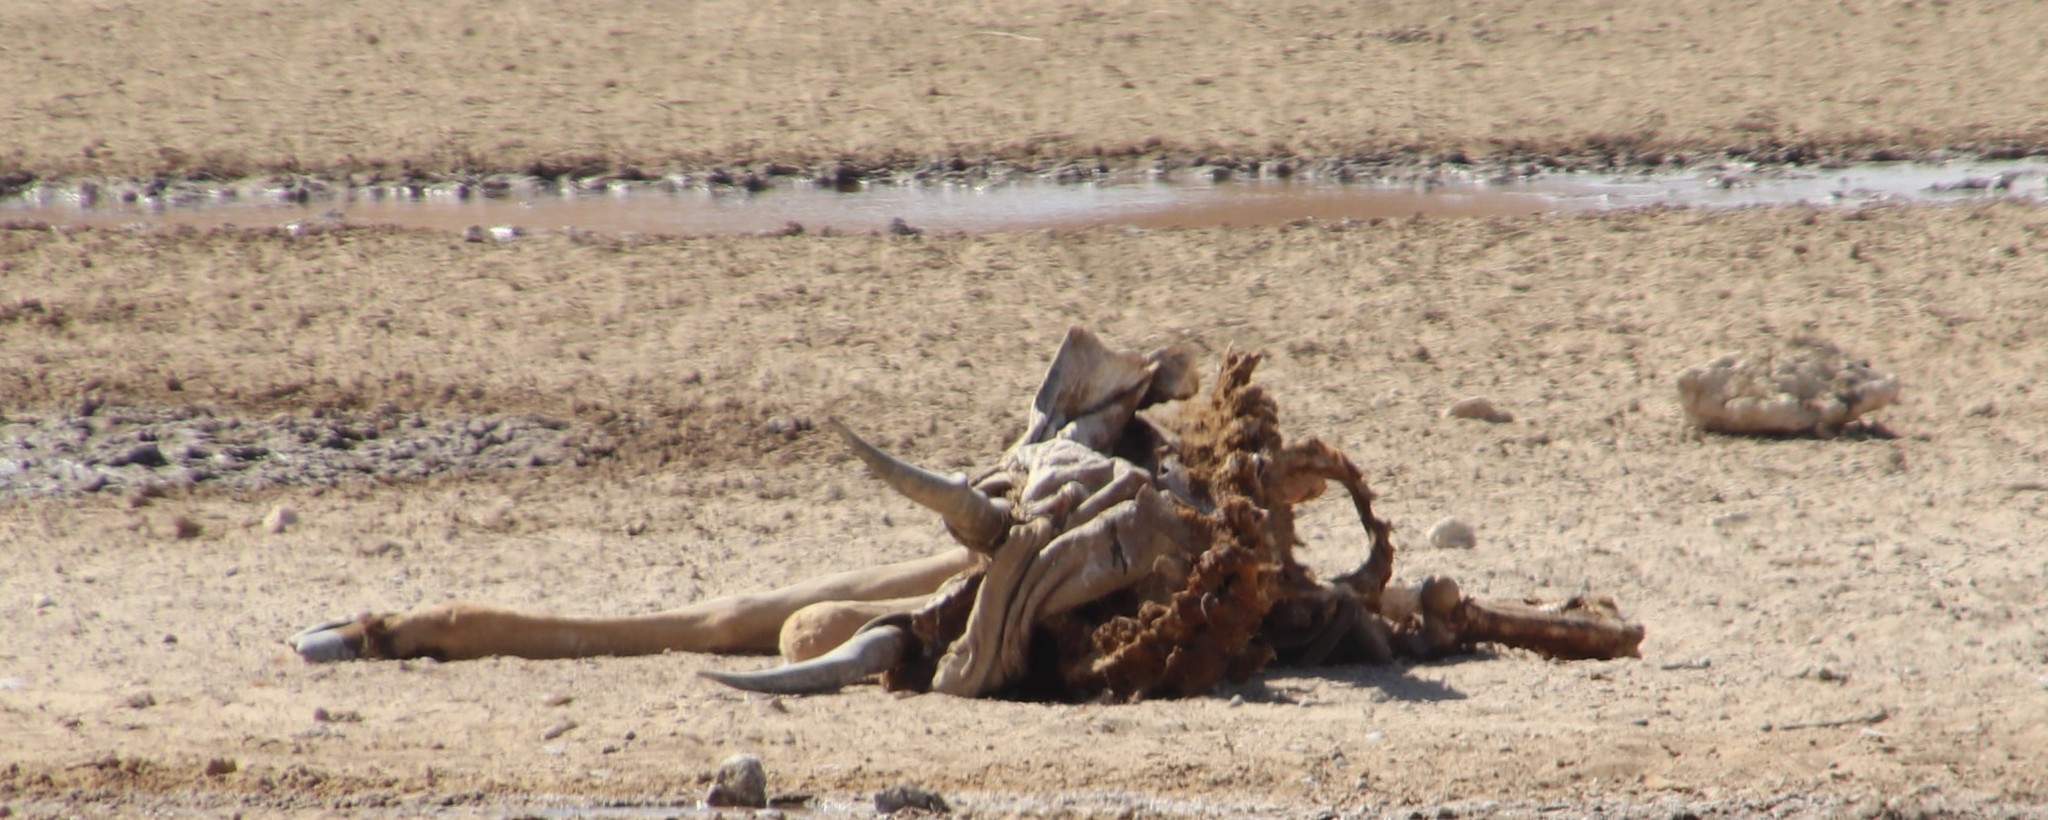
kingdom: Animalia
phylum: Chordata
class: Mammalia
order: Artiodactyla
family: Bovidae
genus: Taurotragus
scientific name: Taurotragus oryx
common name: Common eland
